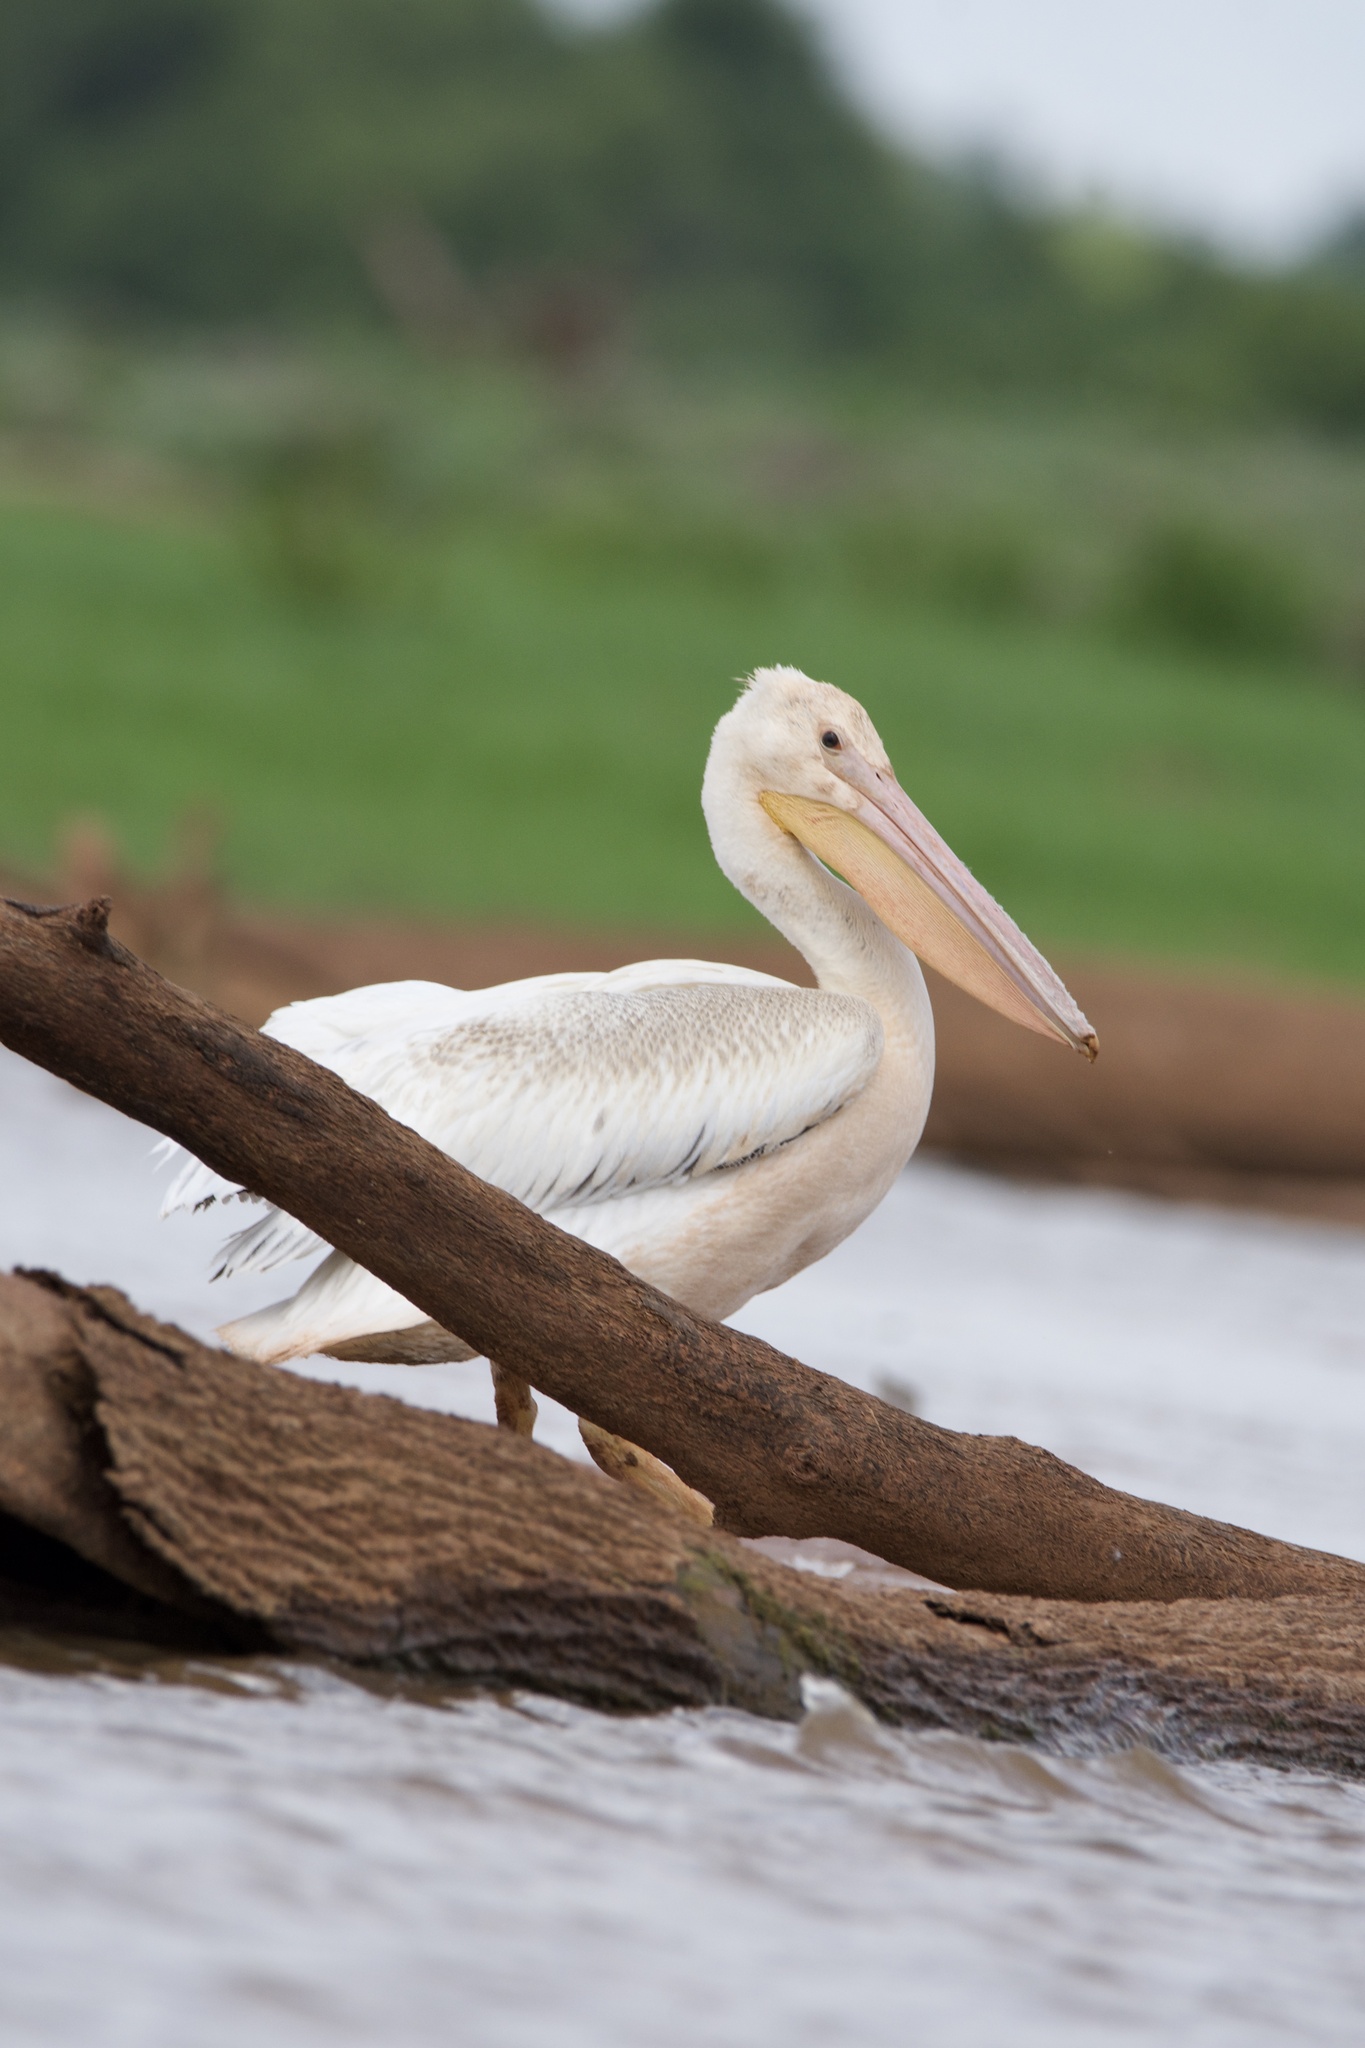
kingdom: Animalia
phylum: Chordata
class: Aves
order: Pelecaniformes
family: Pelecanidae
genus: Pelecanus
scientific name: Pelecanus erythrorhynchos
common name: American white pelican
